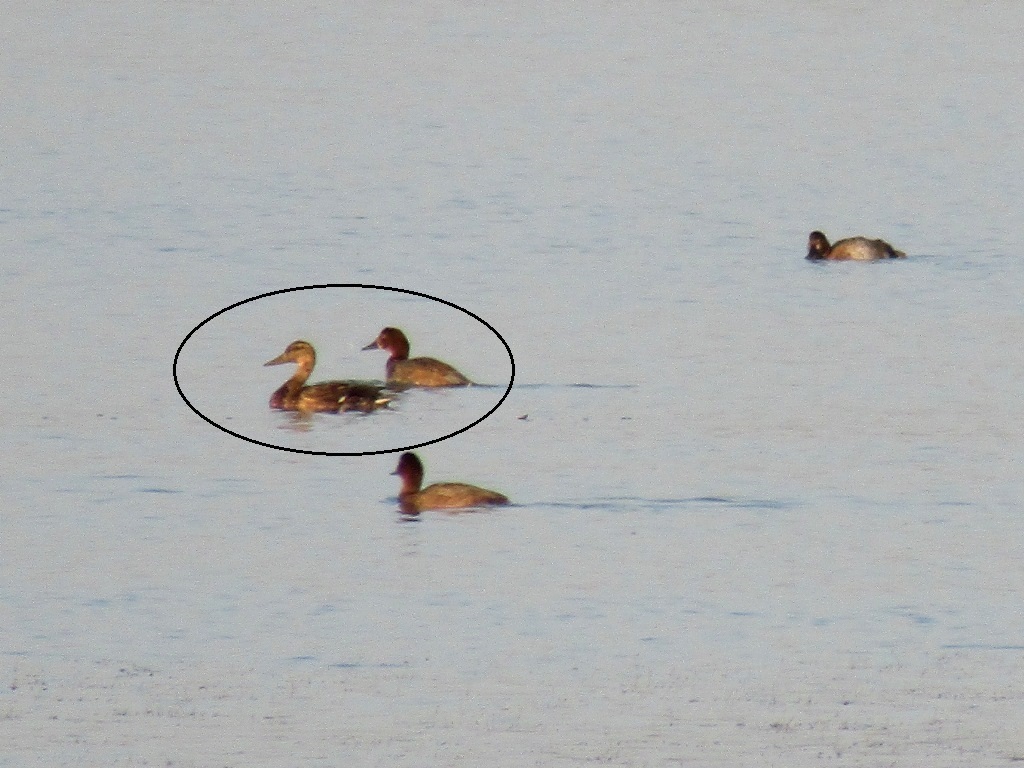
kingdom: Animalia
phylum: Chordata
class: Aves
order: Anseriformes
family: Anatidae
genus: Anas
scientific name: Anas platyrhynchos
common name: Mallard
